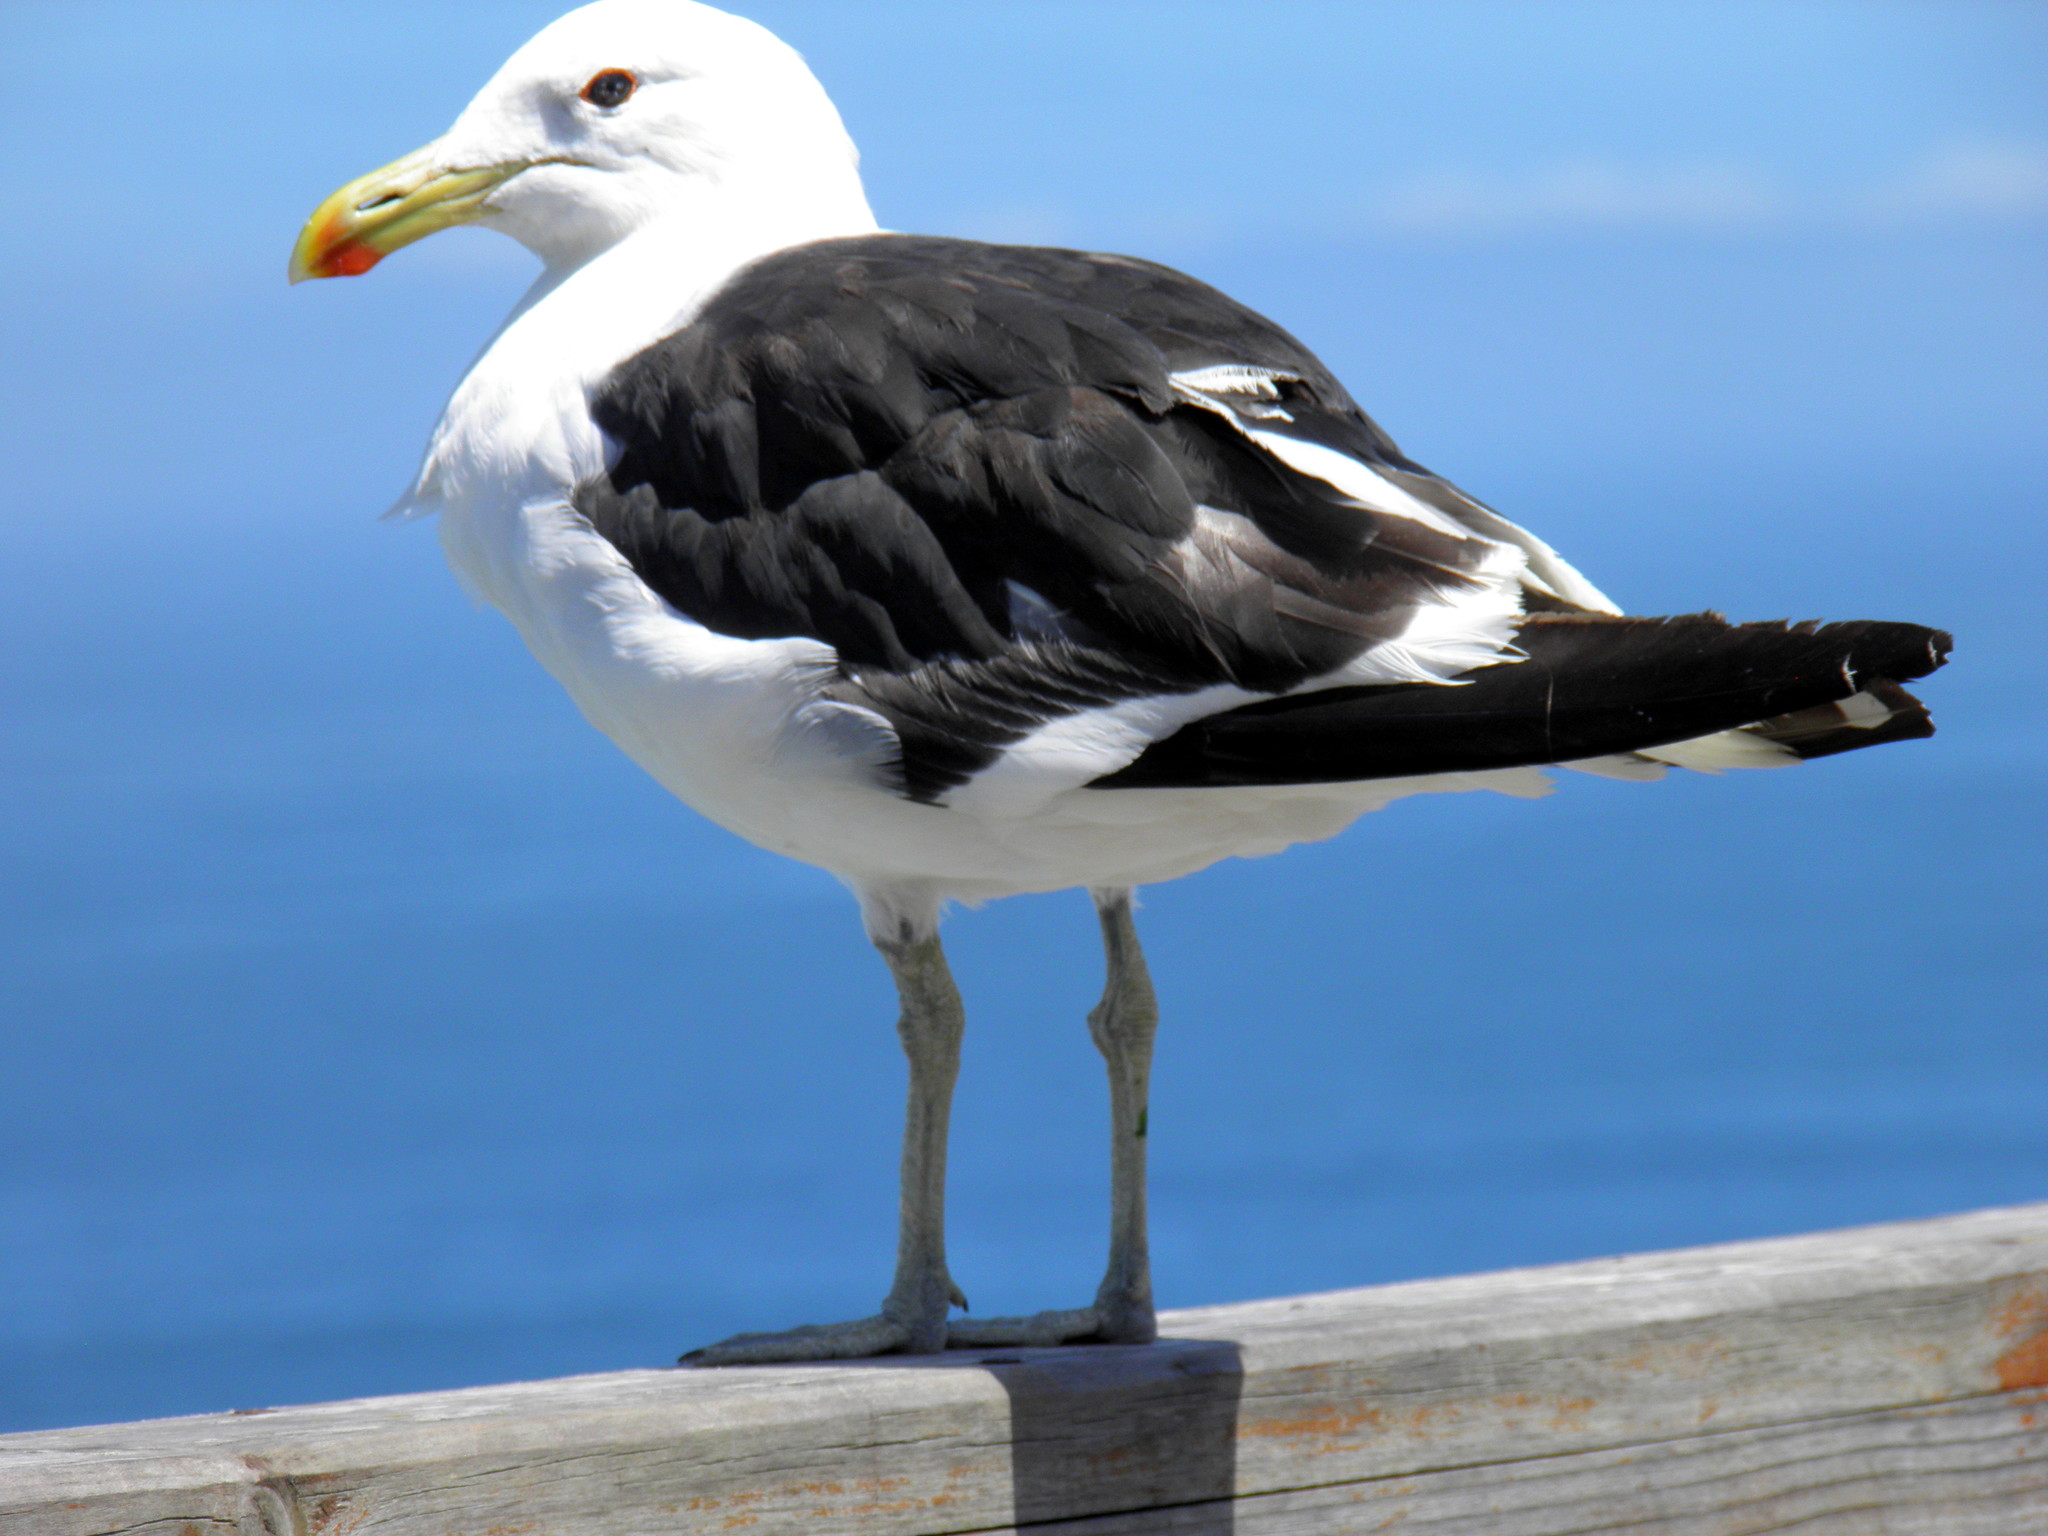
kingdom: Animalia
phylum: Chordata
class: Aves
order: Charadriiformes
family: Laridae
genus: Larus
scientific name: Larus dominicanus
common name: Kelp gull
